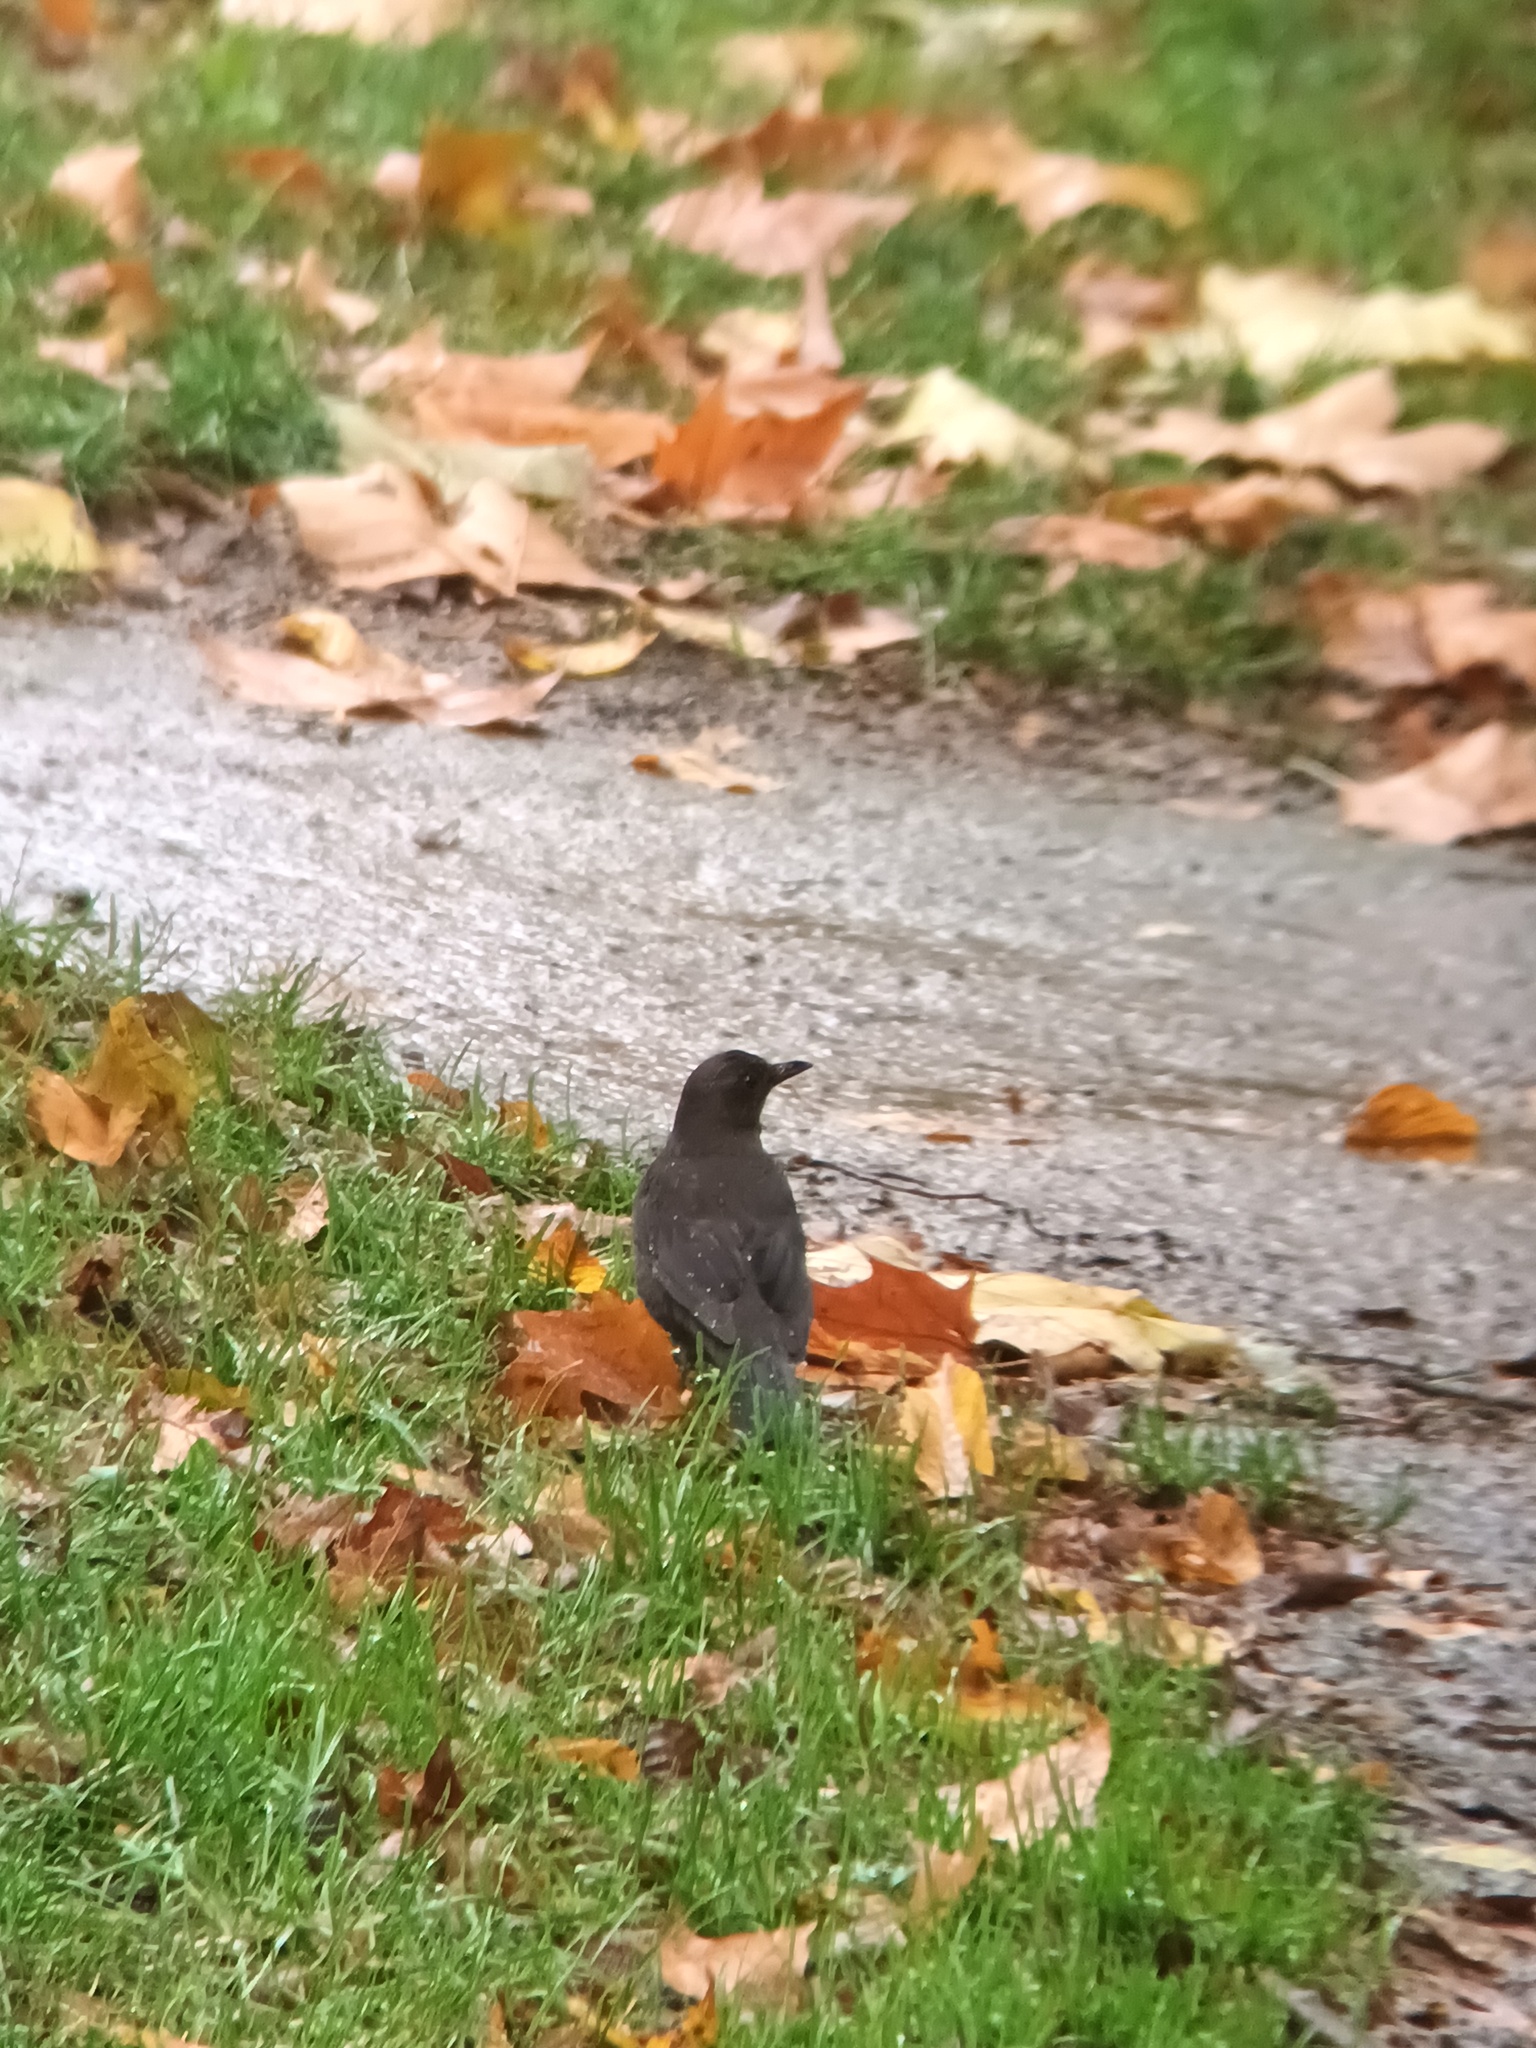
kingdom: Animalia
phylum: Chordata
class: Aves
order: Passeriformes
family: Turdidae
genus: Turdus
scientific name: Turdus merula
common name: Common blackbird
